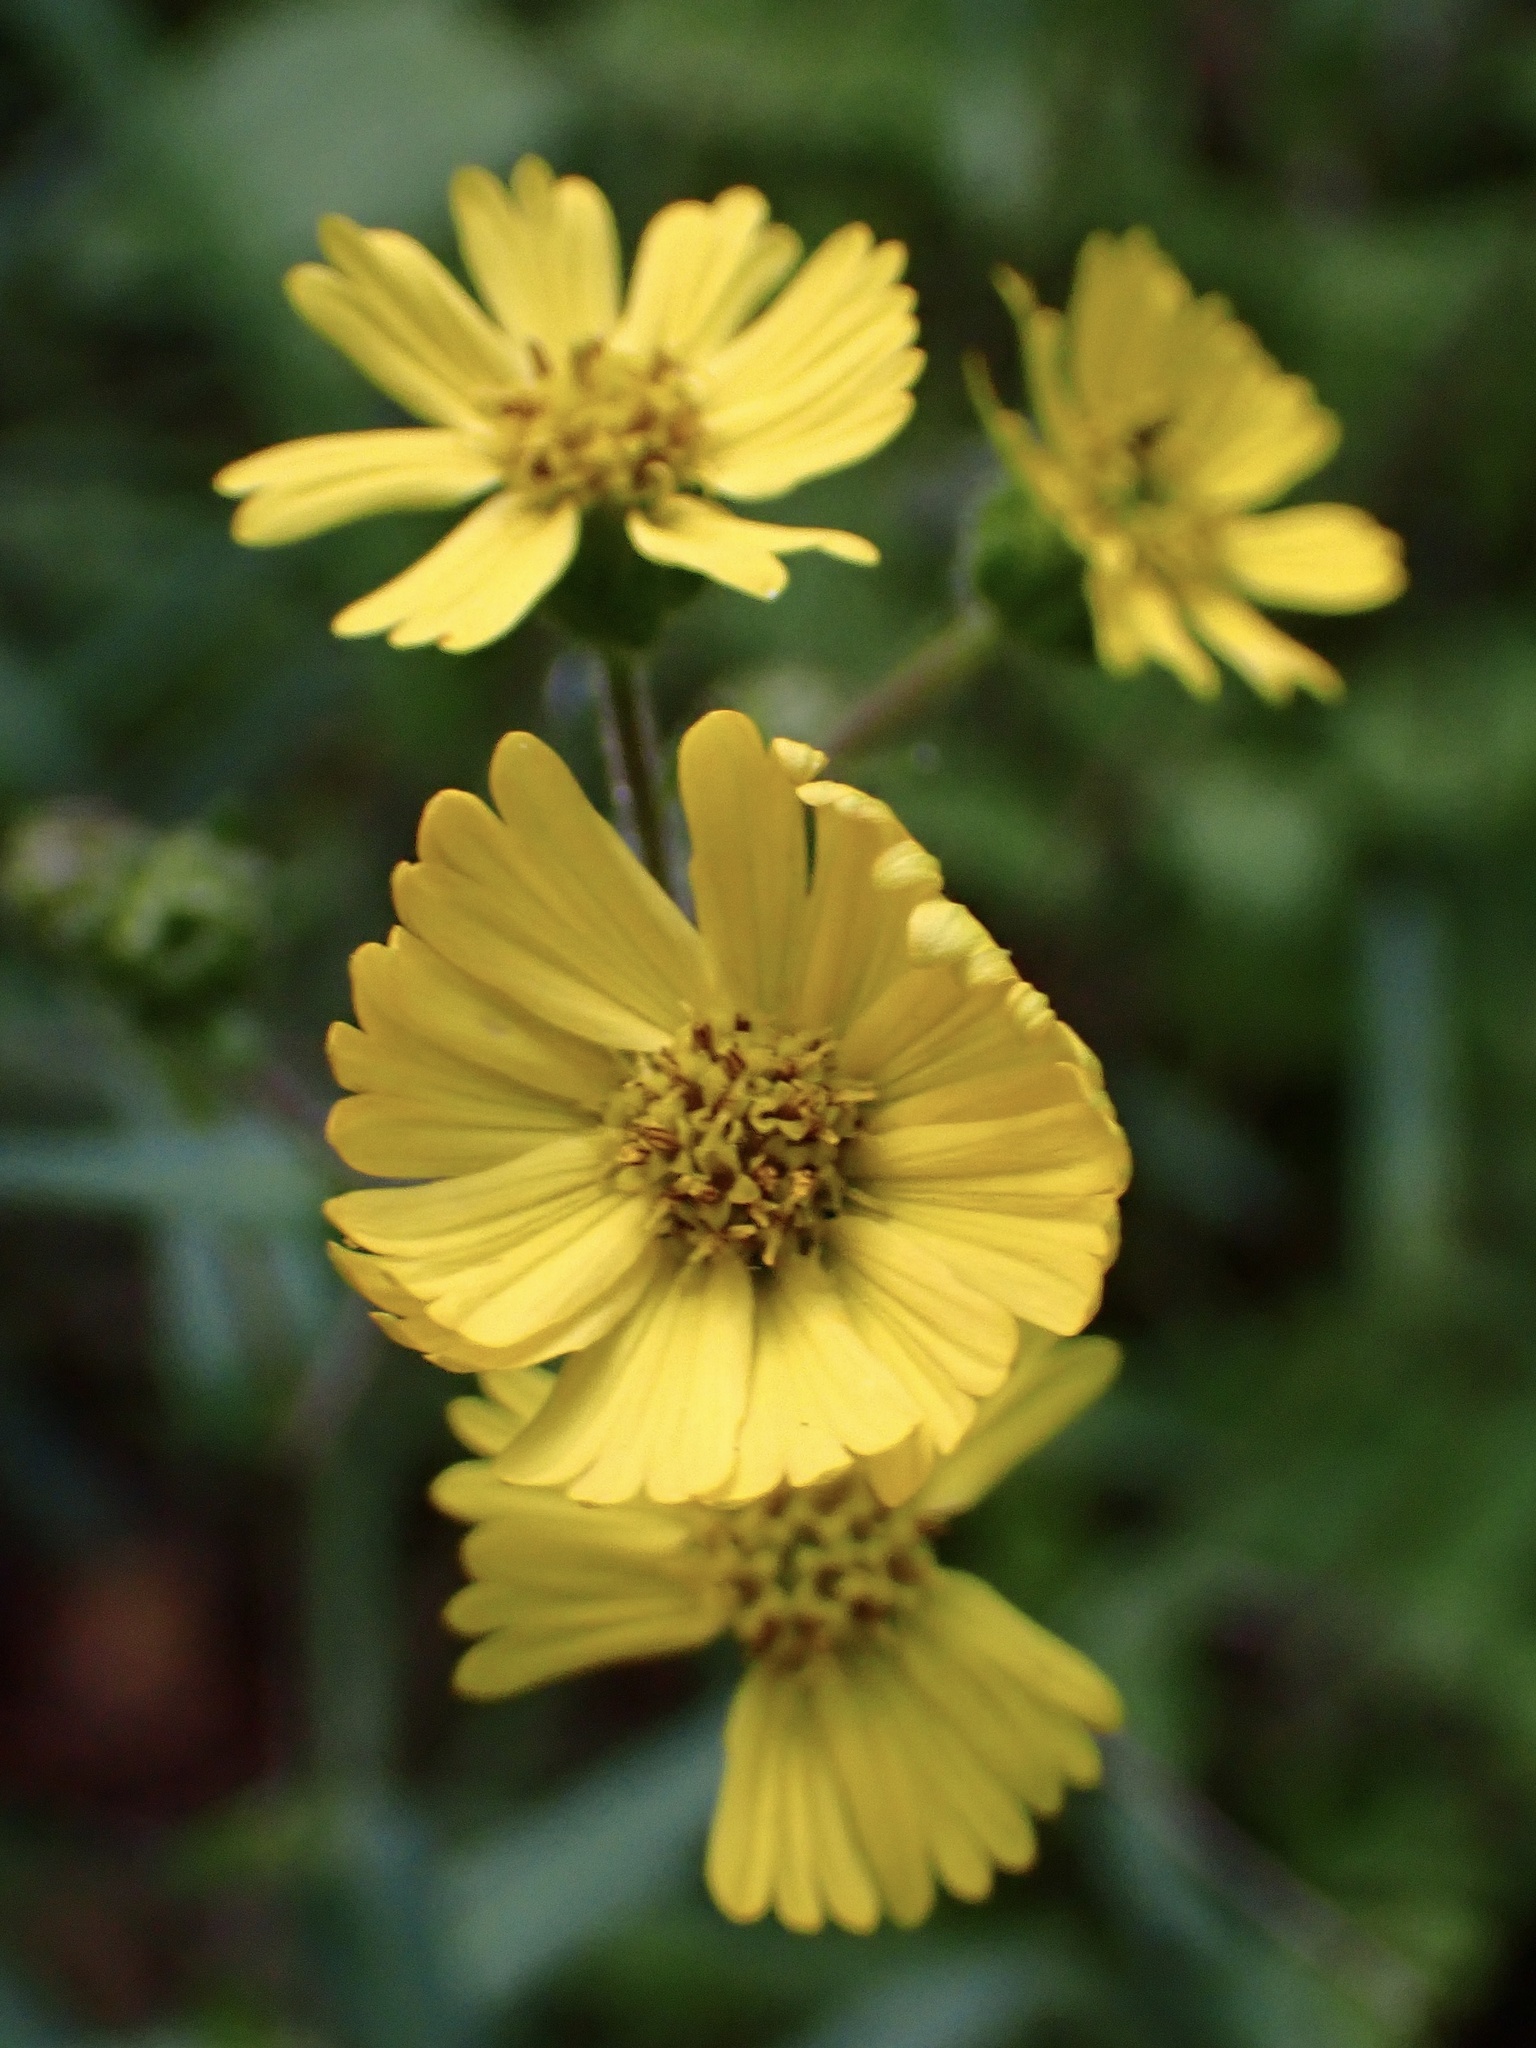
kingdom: Plantae
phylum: Tracheophyta
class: Magnoliopsida
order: Asterales
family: Asteraceae
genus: Anisocarpus
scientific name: Anisocarpus madioides
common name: Woodland madia
